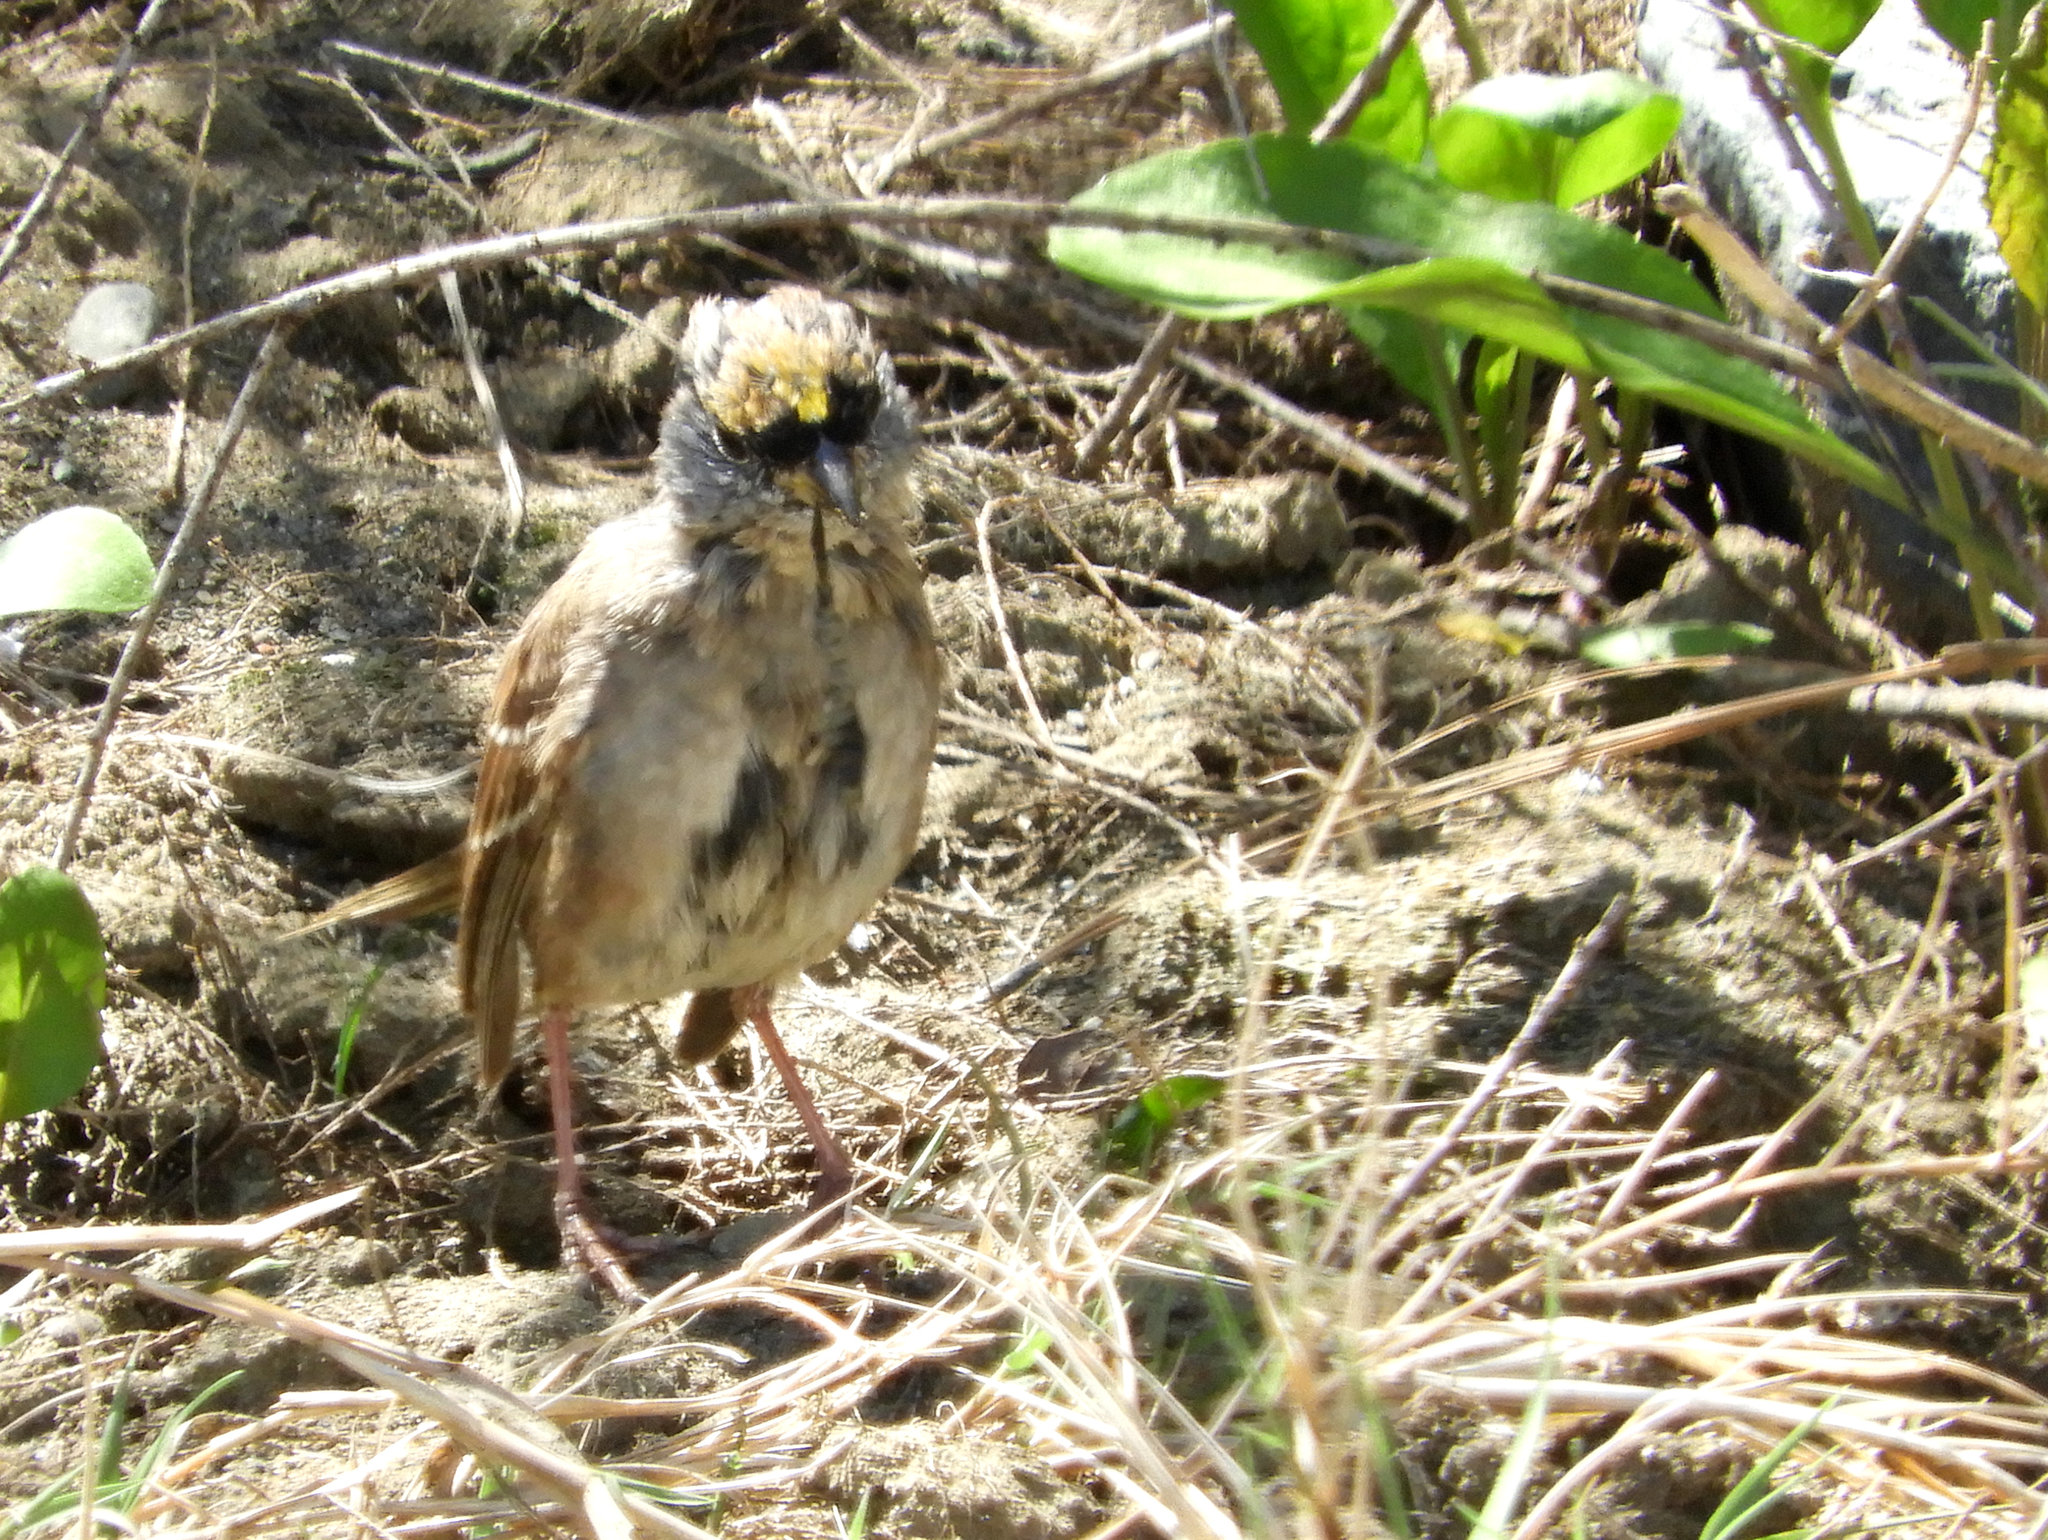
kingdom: Animalia
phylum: Chordata
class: Aves
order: Passeriformes
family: Passerellidae
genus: Zonotrichia
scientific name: Zonotrichia atricapilla
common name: Golden-crowned sparrow
